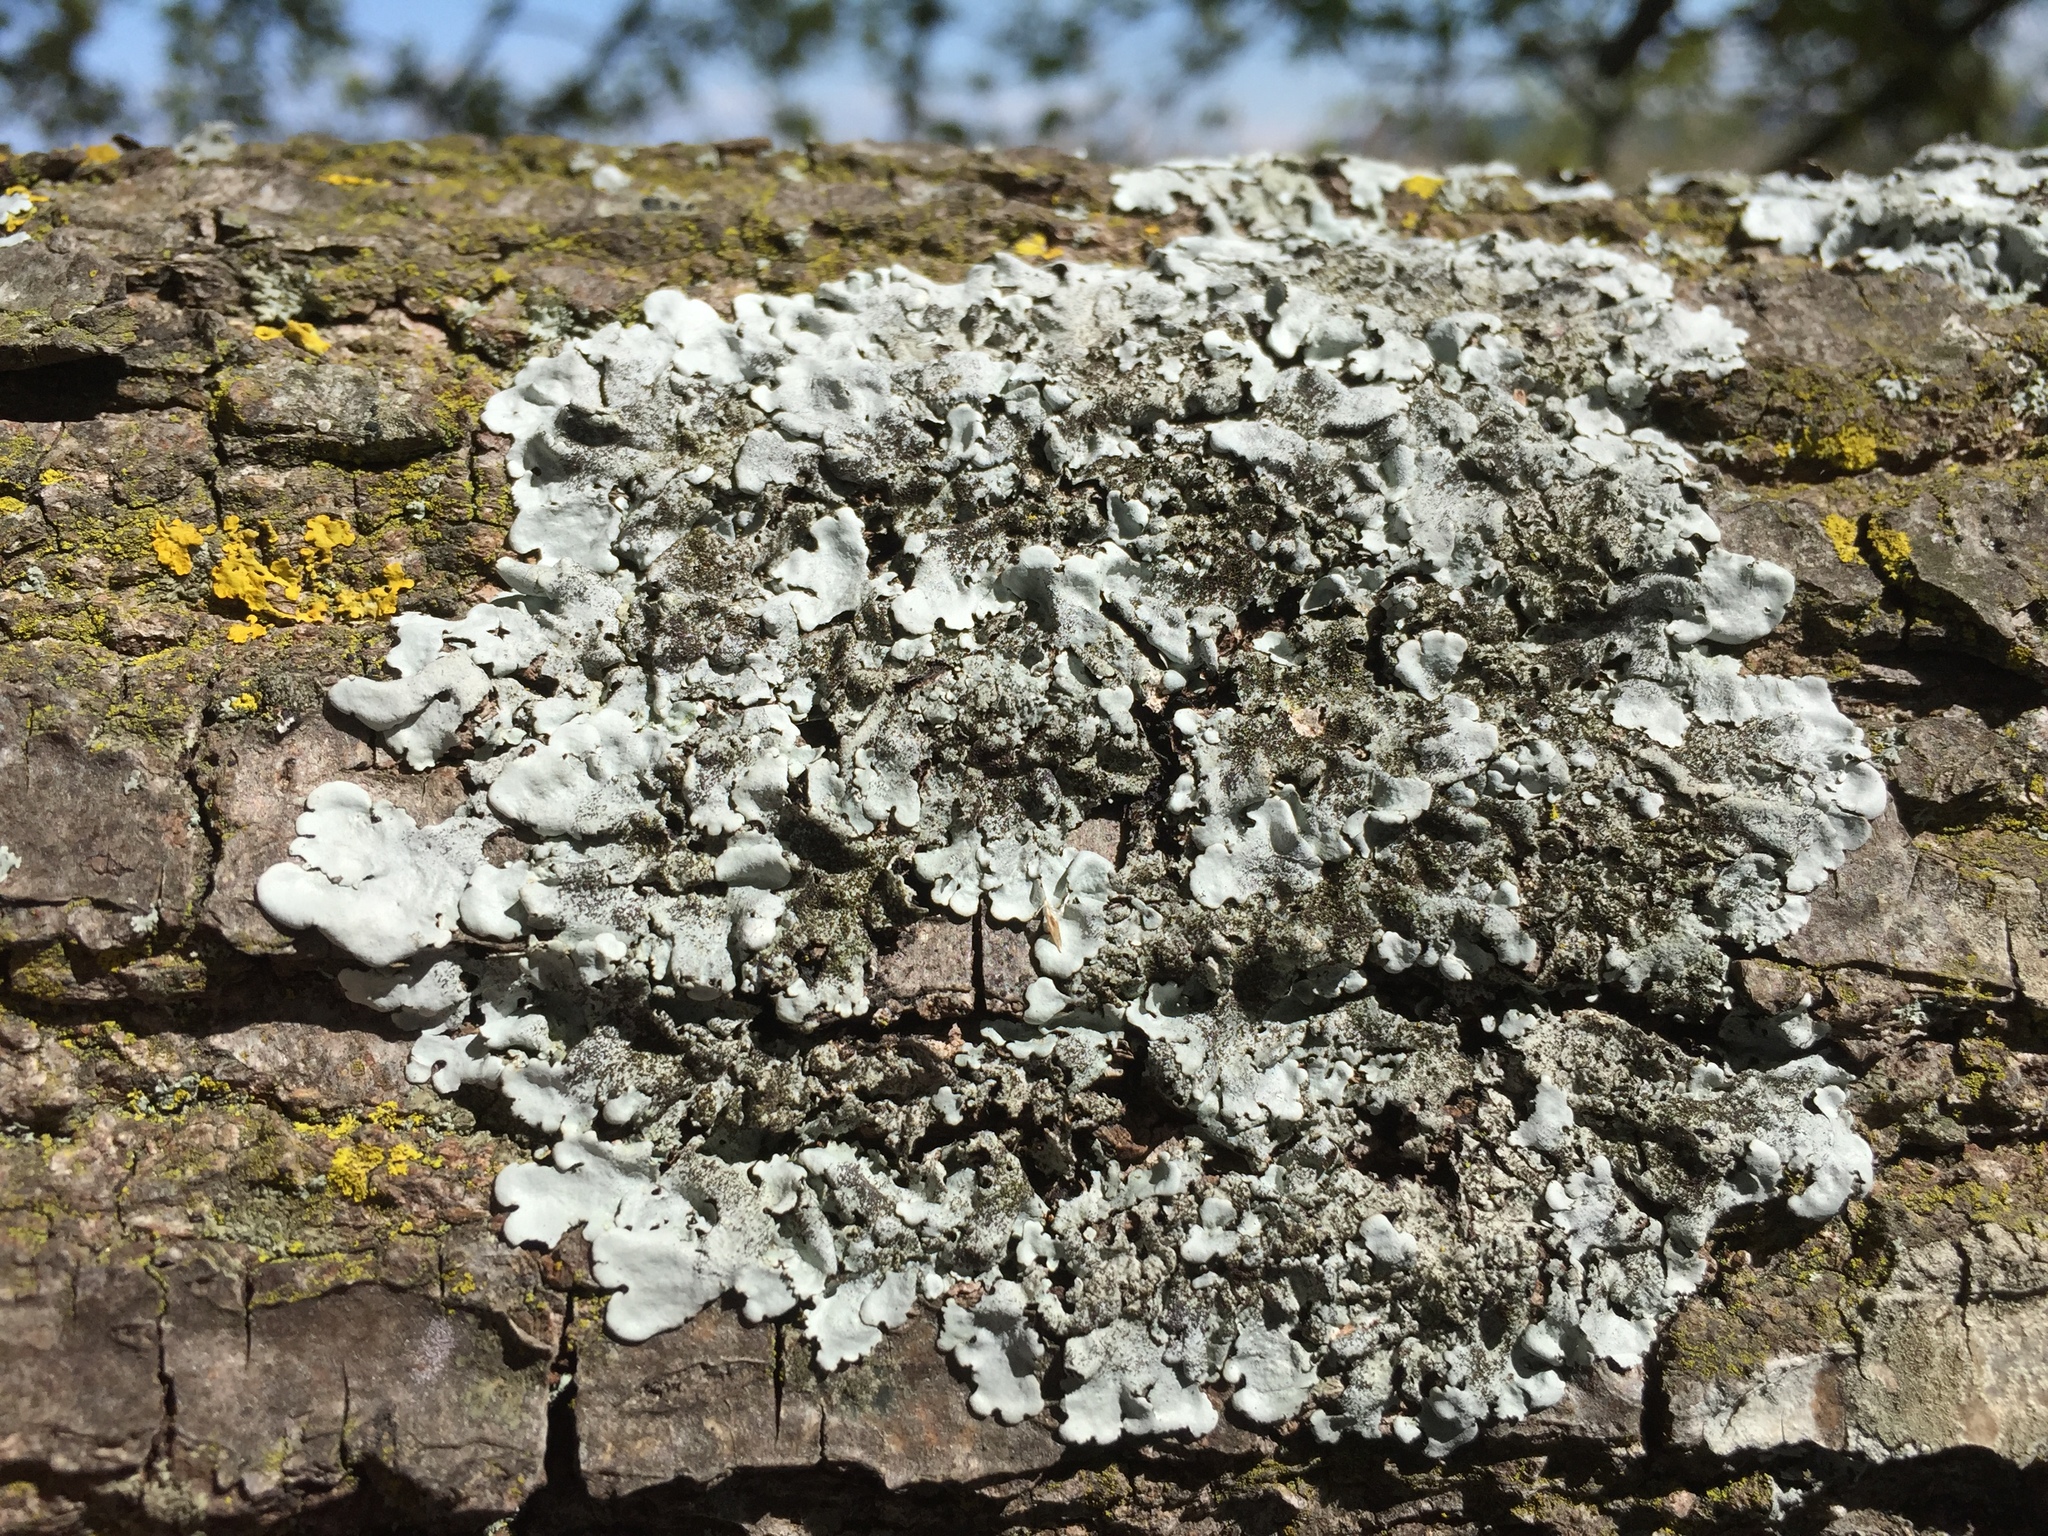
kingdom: Fungi
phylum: Ascomycota
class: Lecanoromycetes
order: Lecanorales
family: Parmeliaceae
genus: Parmelina
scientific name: Parmelina tiliacea
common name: Linden shield lichen
